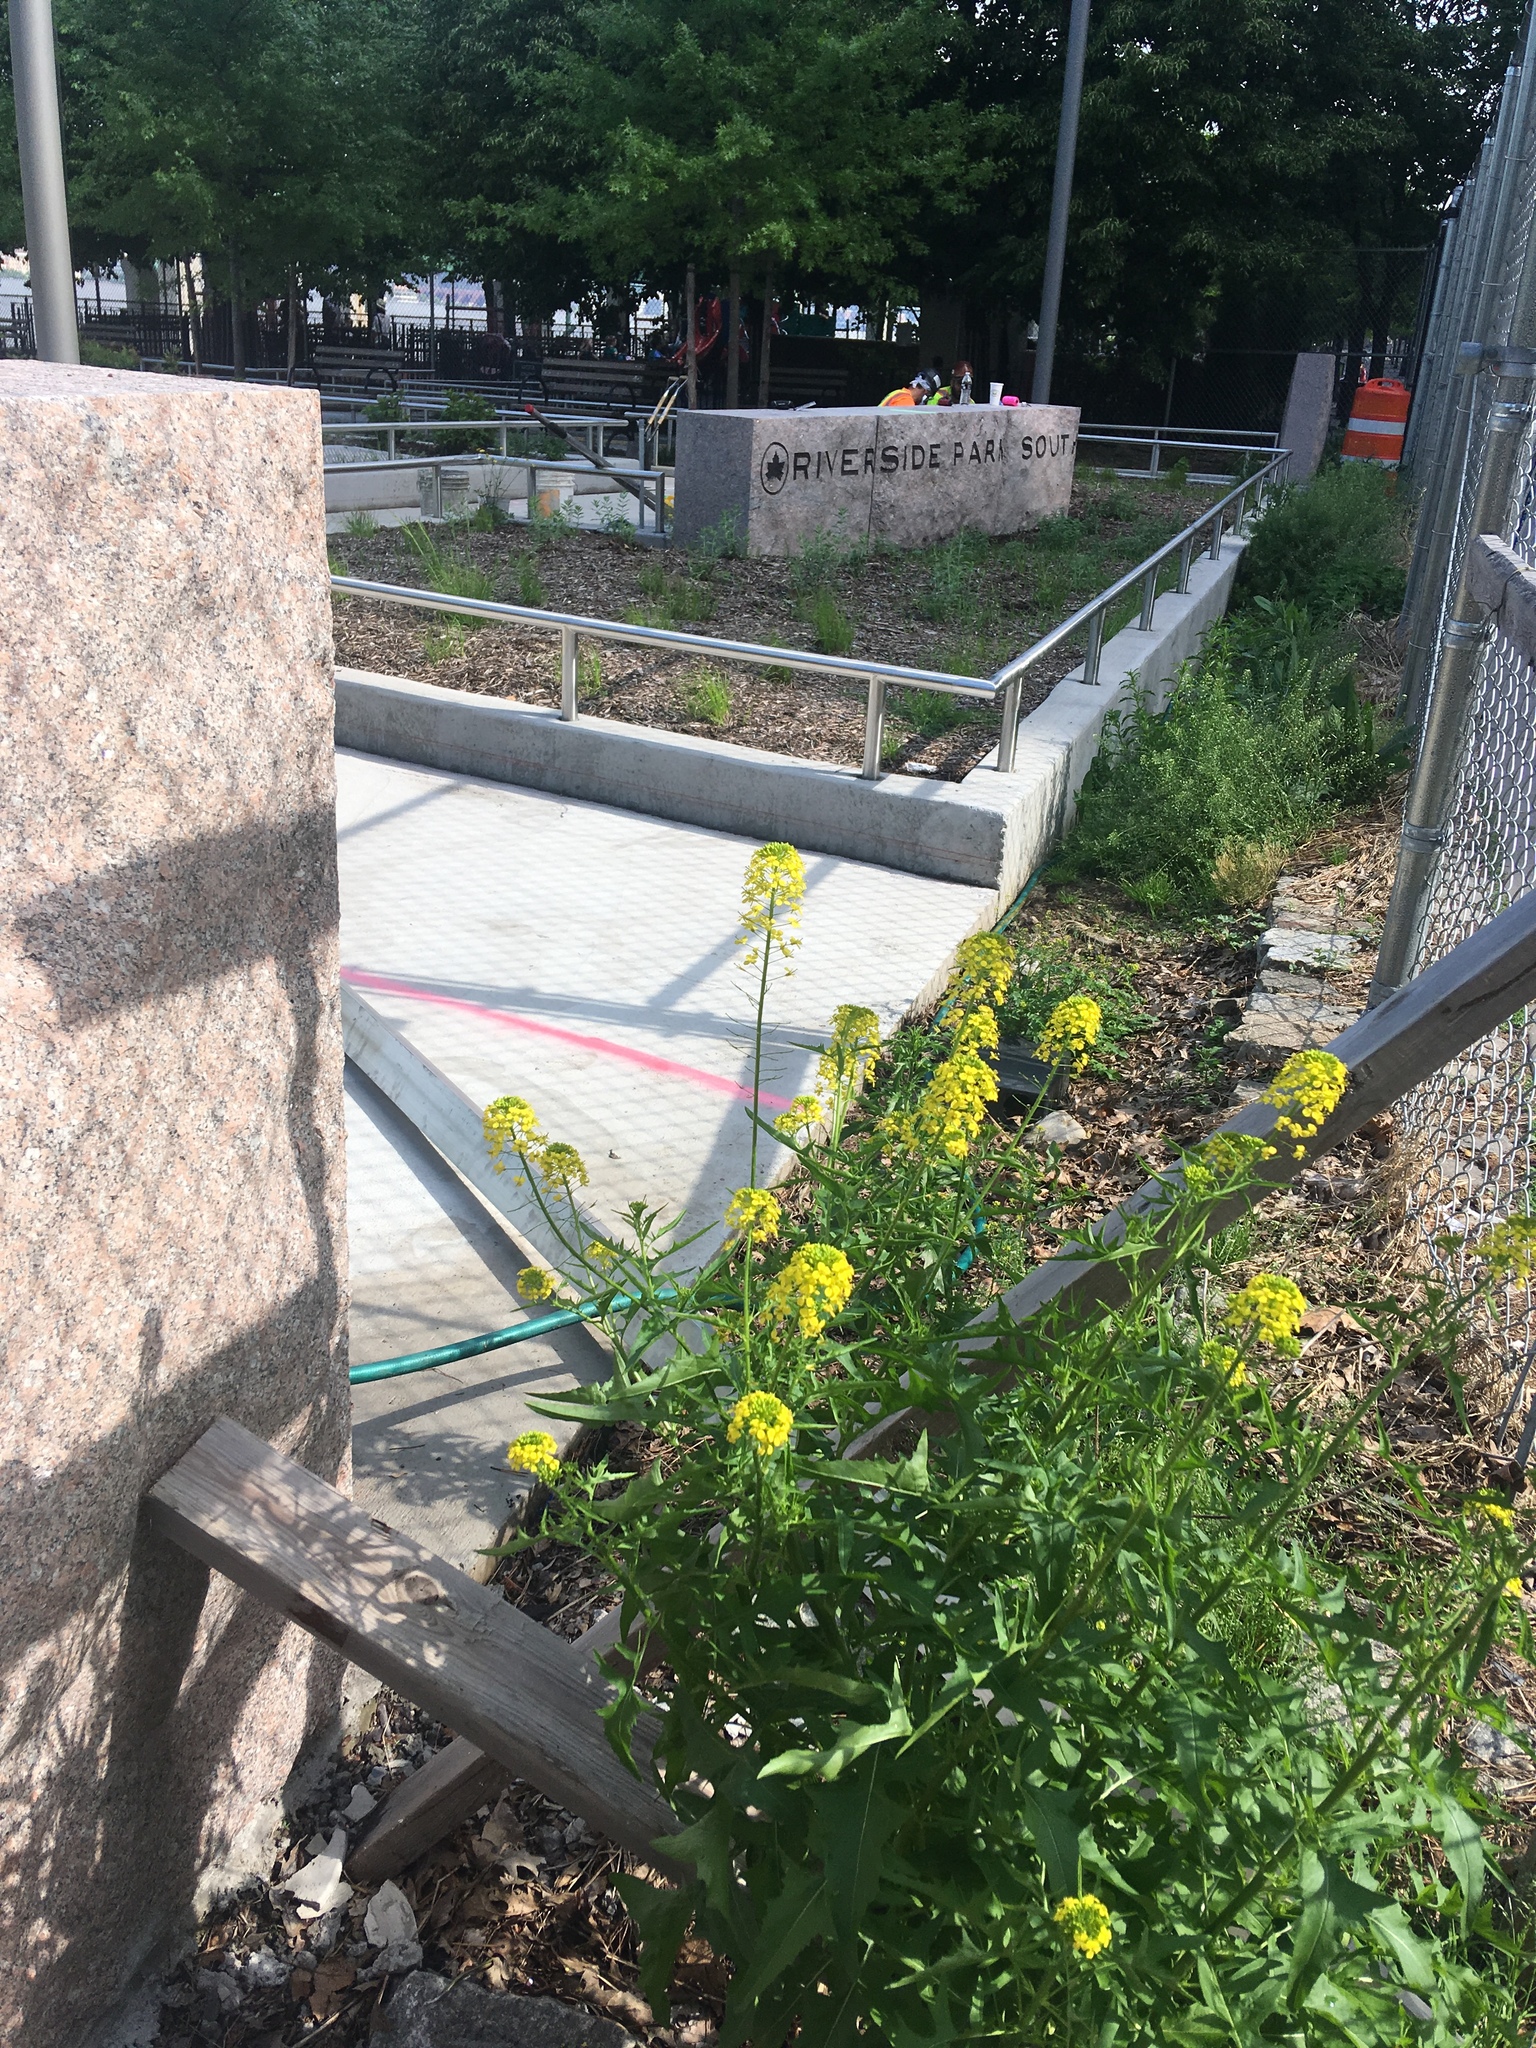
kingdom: Plantae
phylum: Tracheophyta
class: Magnoliopsida
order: Brassicales
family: Brassicaceae
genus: Sisymbrium
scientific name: Sisymbrium loeselii
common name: False london-rocket
